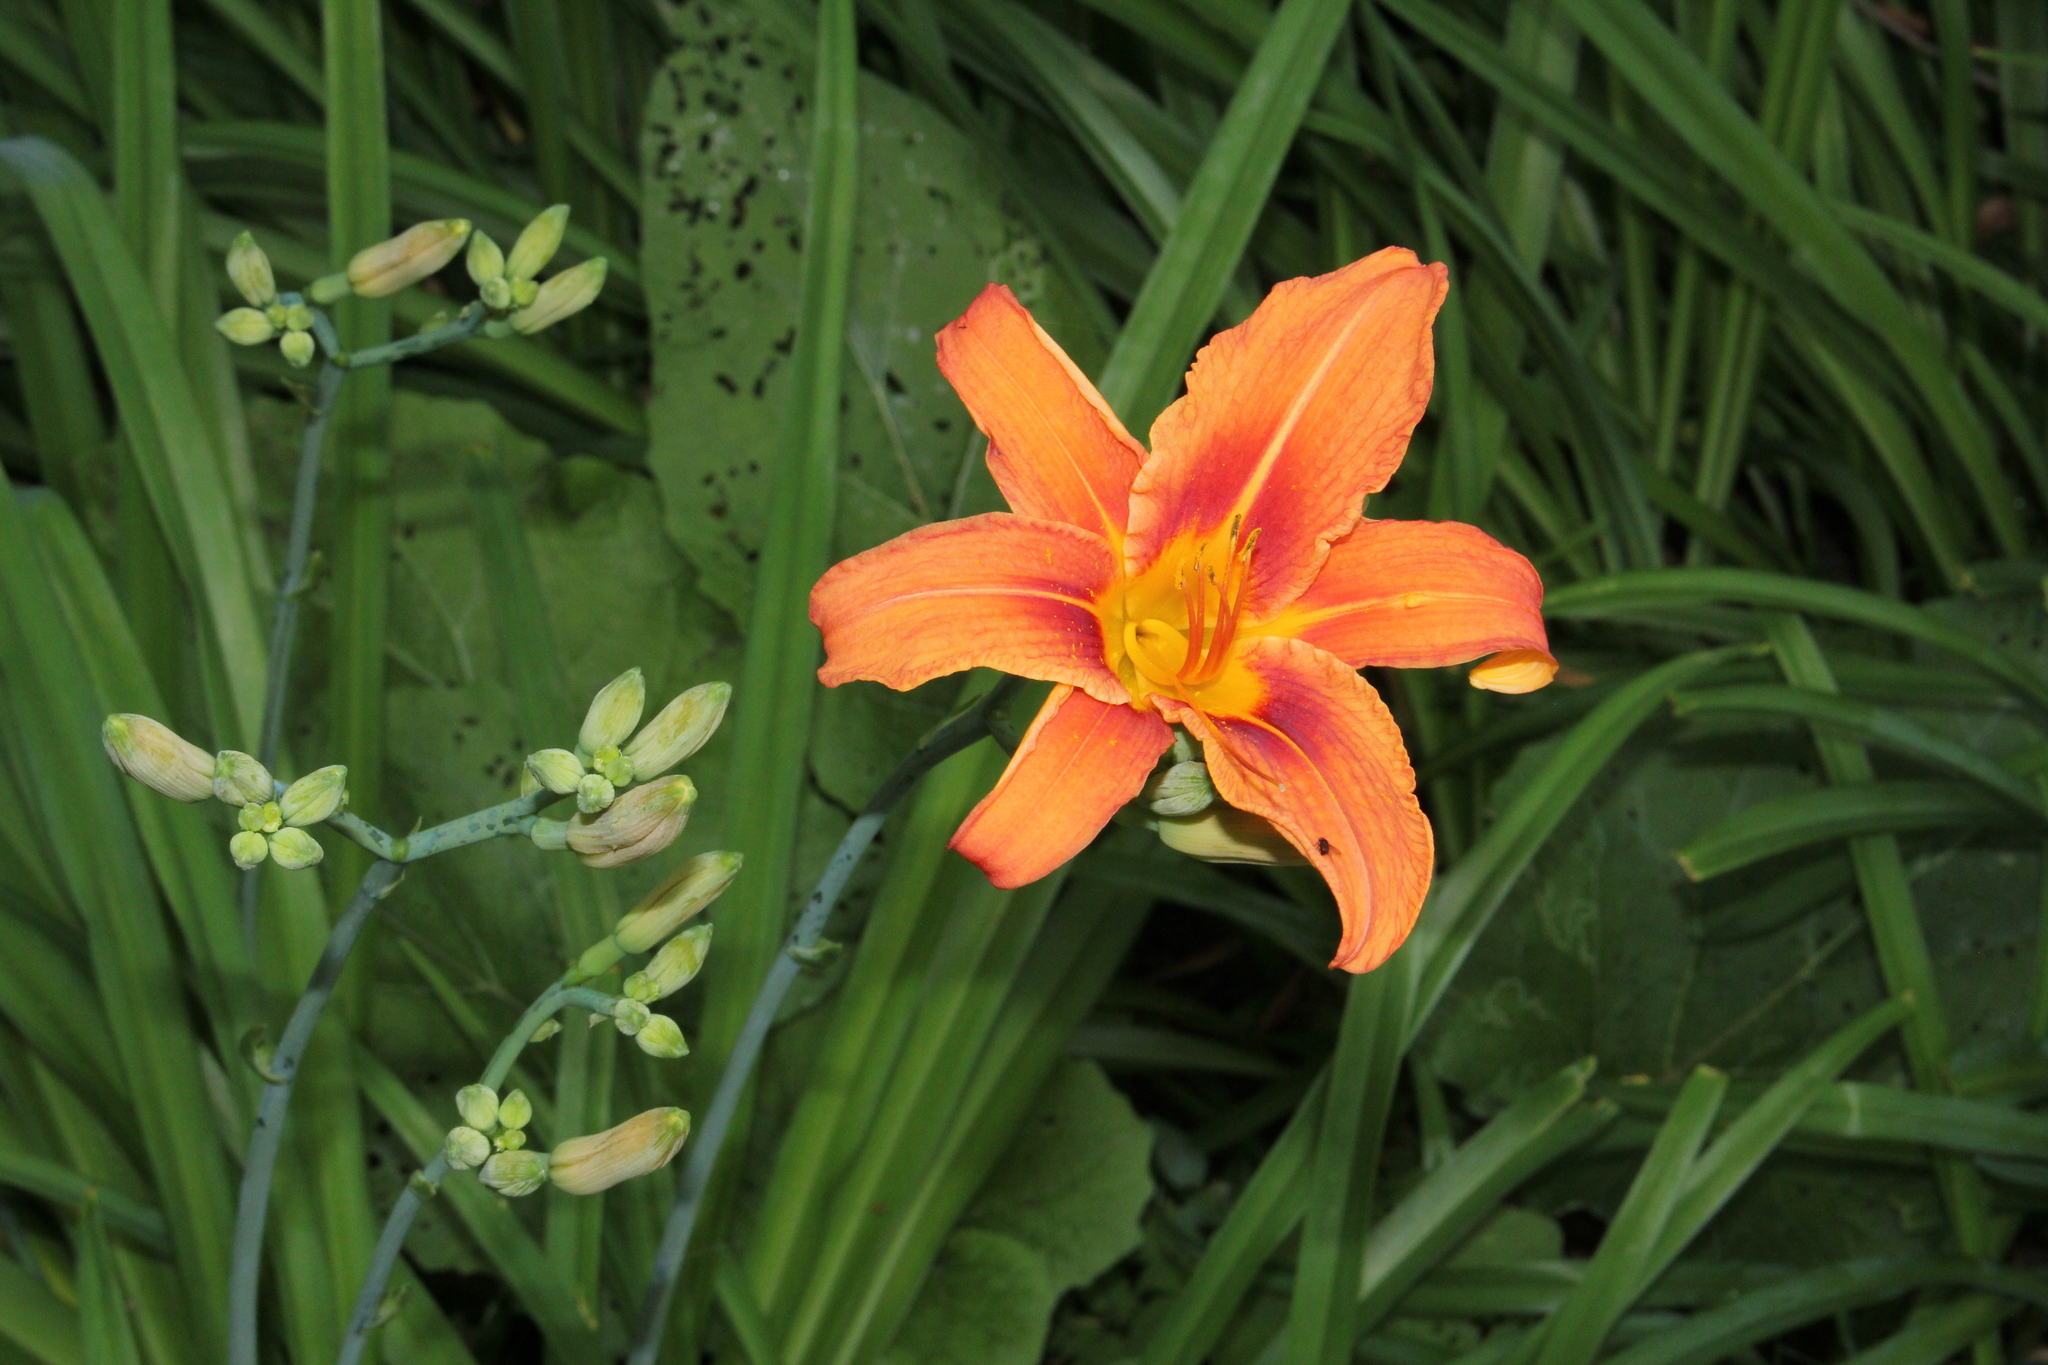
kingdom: Plantae
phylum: Tracheophyta
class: Liliopsida
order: Asparagales
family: Asphodelaceae
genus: Hemerocallis
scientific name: Hemerocallis fulva
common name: Orange day-lily
